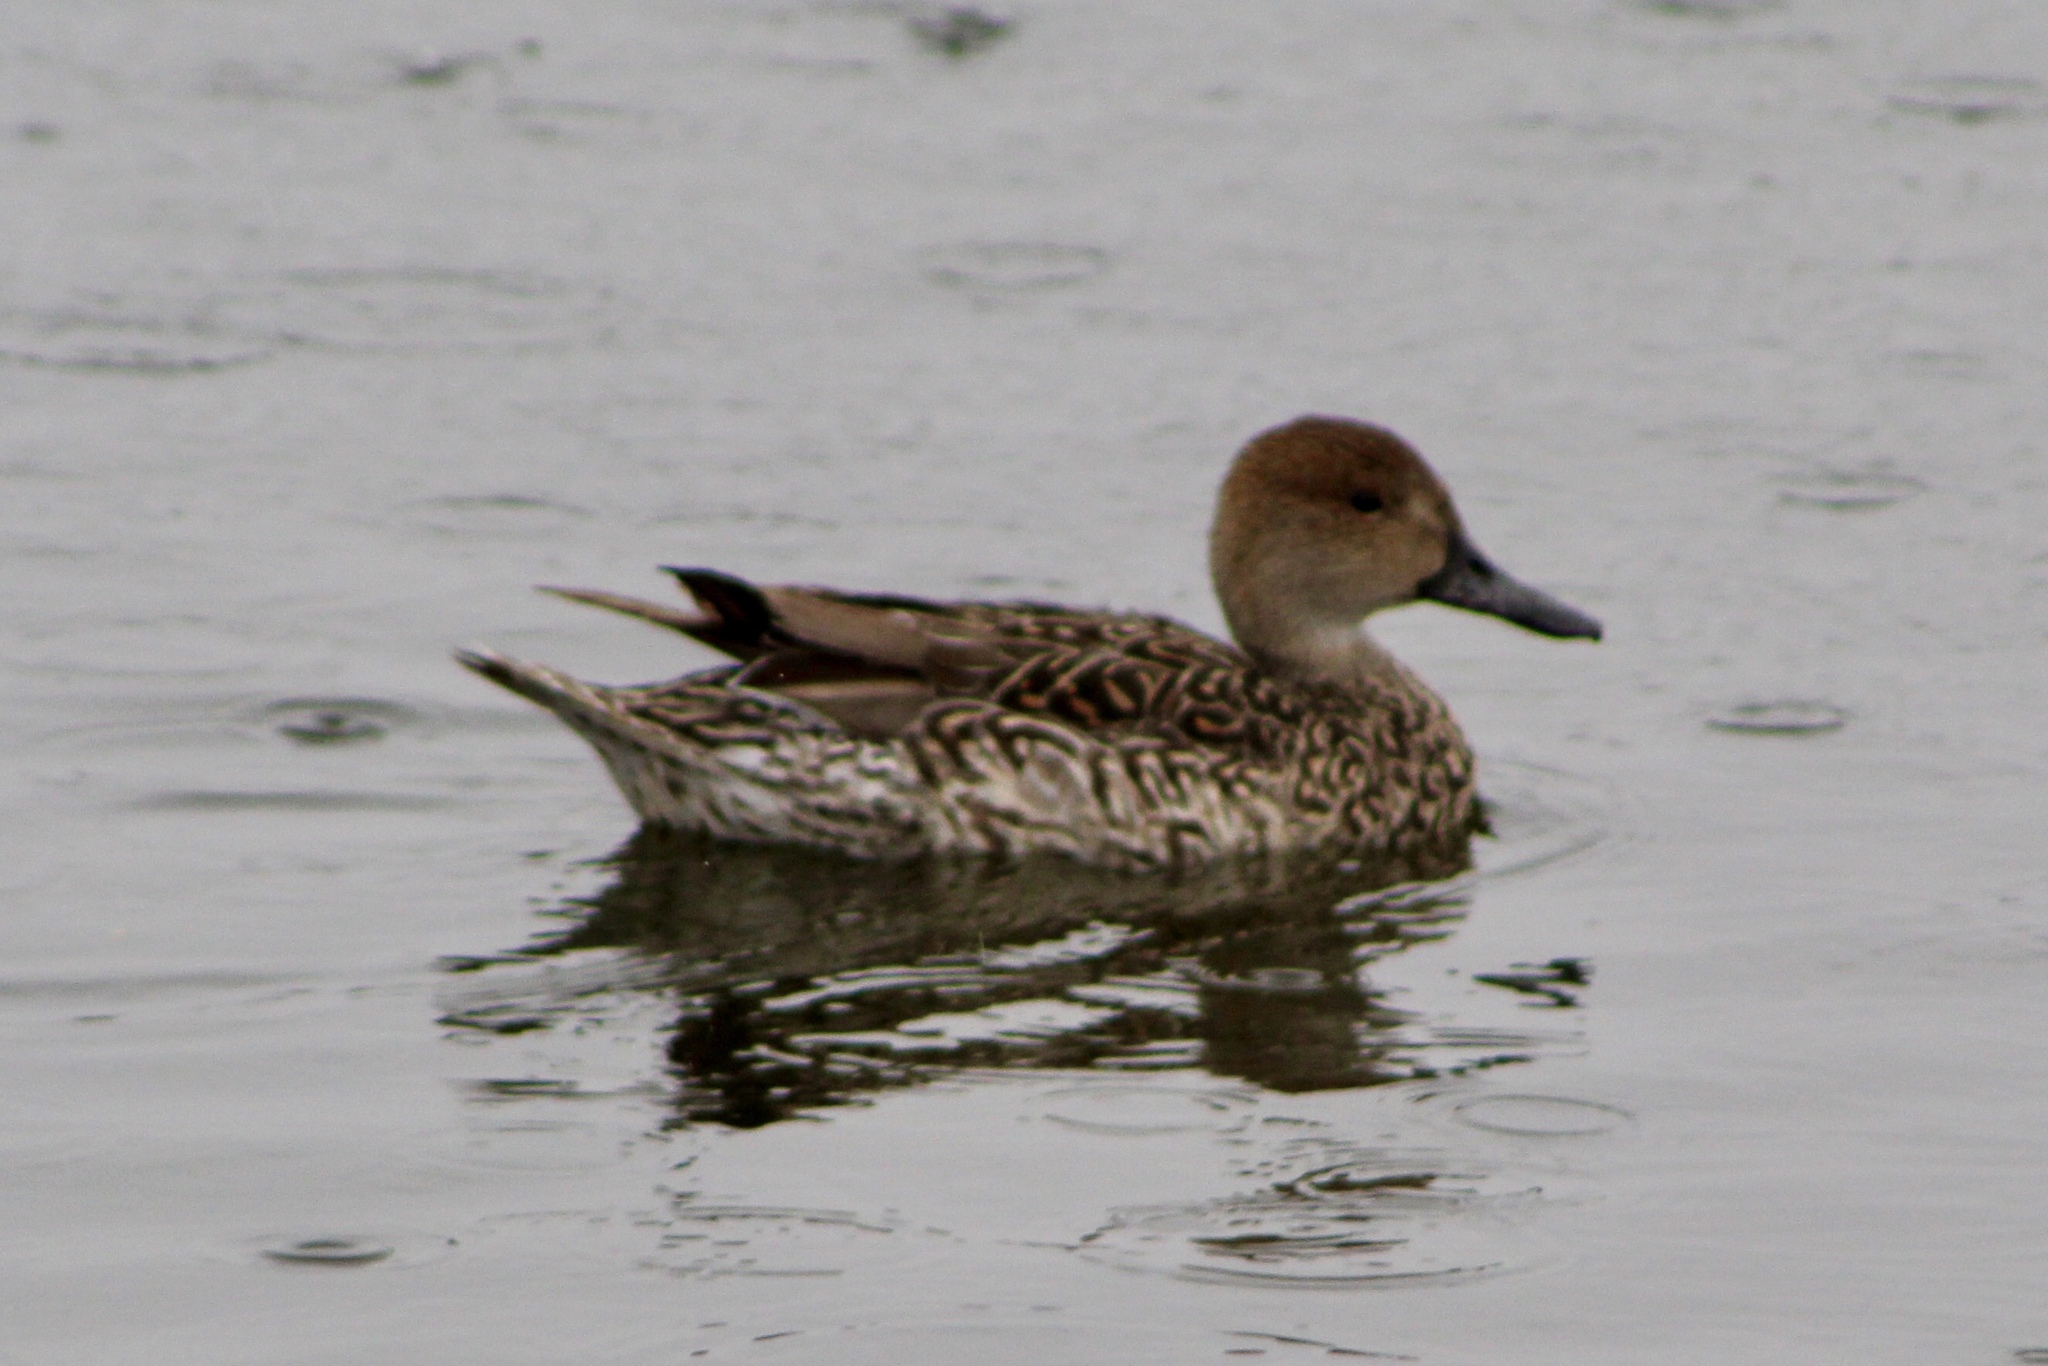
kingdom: Animalia
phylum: Chordata
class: Aves
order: Anseriformes
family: Anatidae
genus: Anas
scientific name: Anas acuta
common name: Northern pintail
